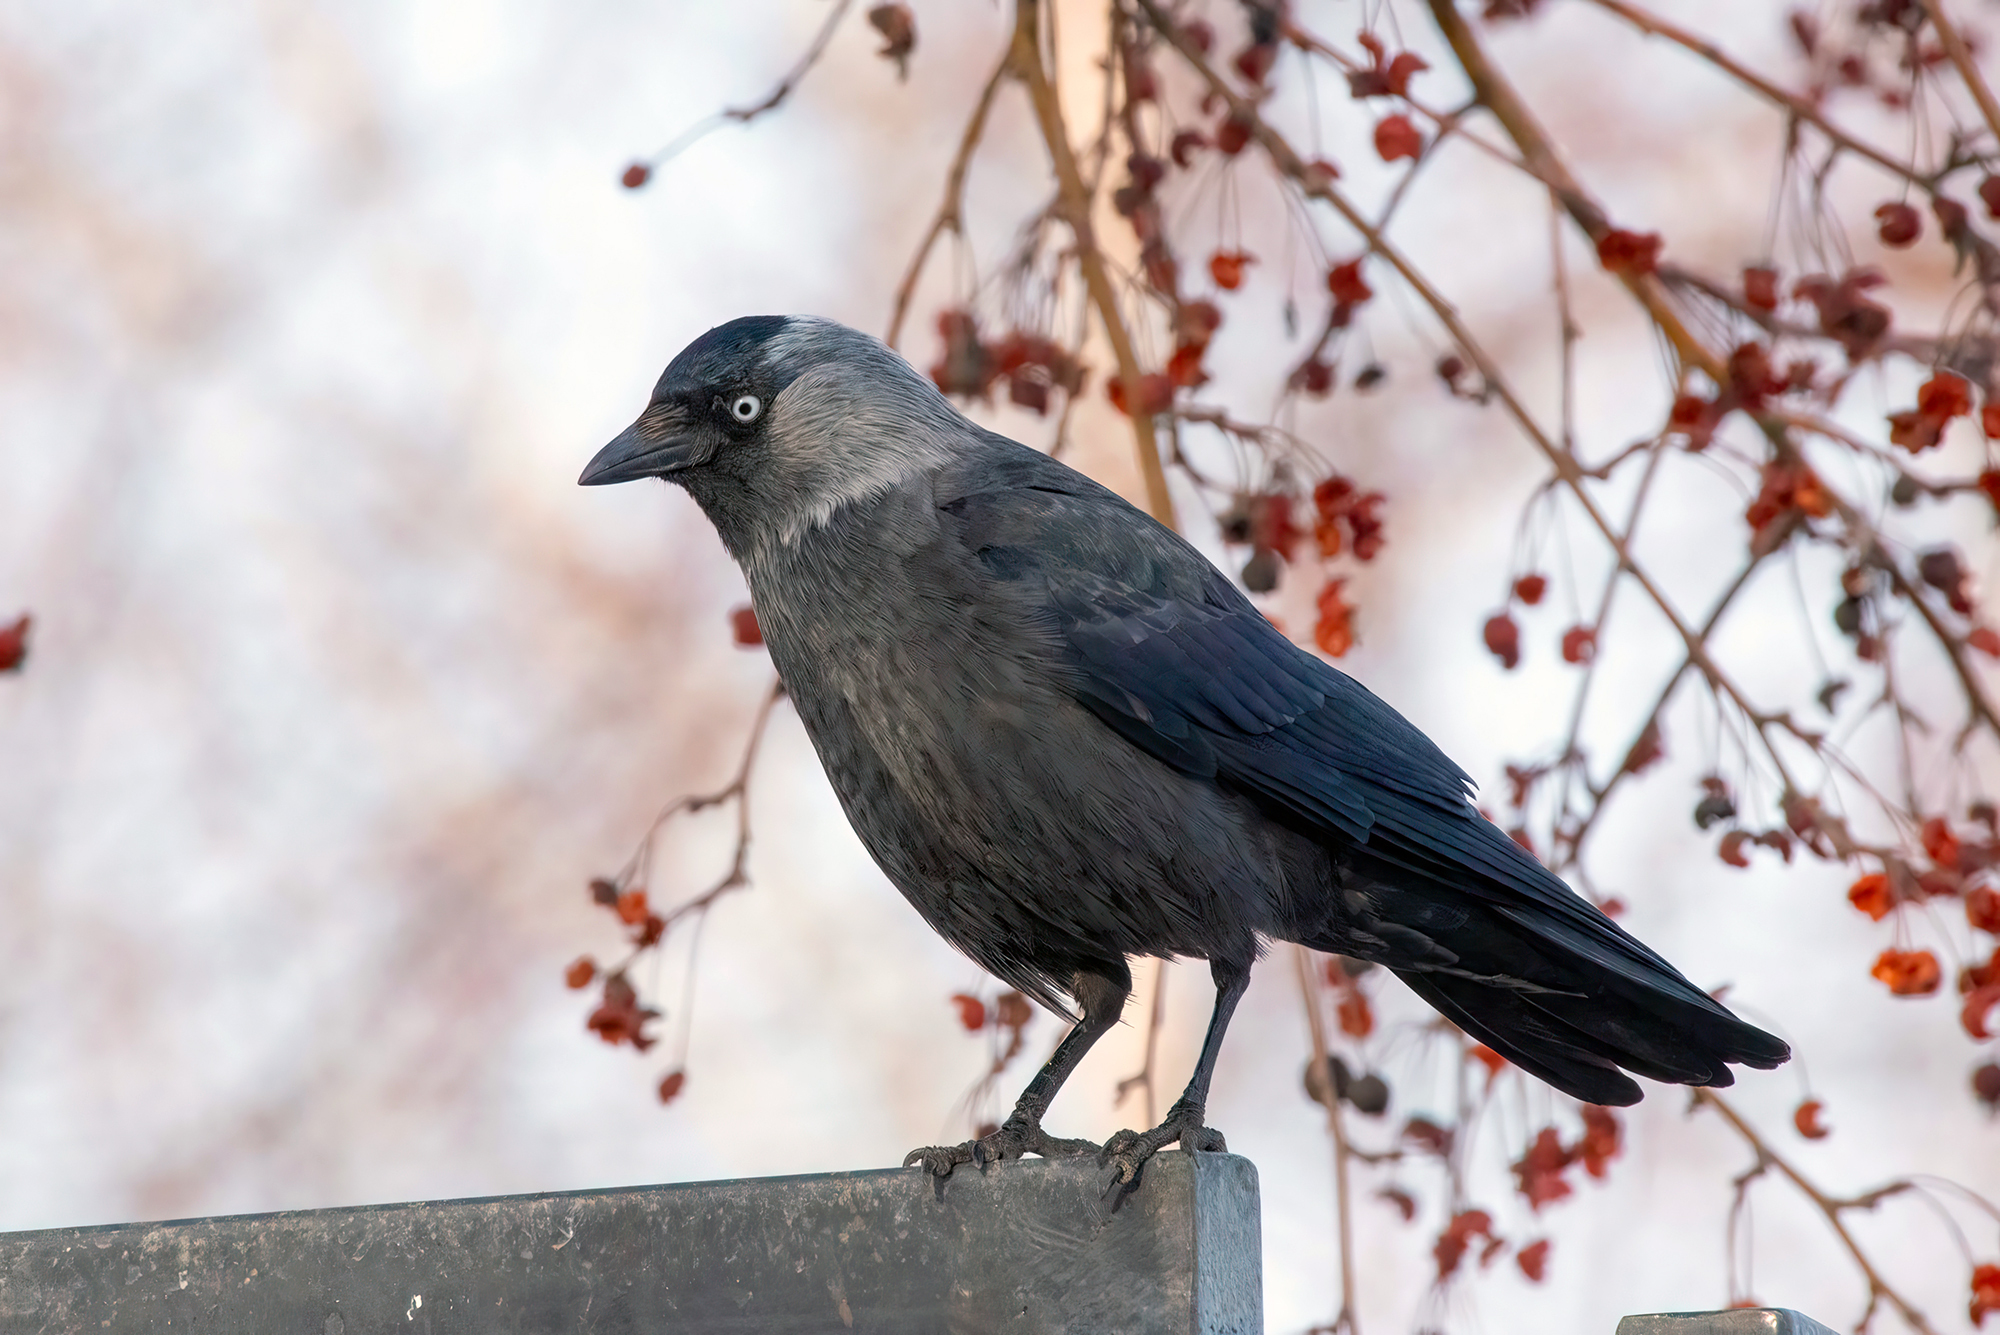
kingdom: Animalia
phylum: Chordata
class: Aves
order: Passeriformes
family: Corvidae
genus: Coloeus
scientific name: Coloeus monedula
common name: Western jackdaw
